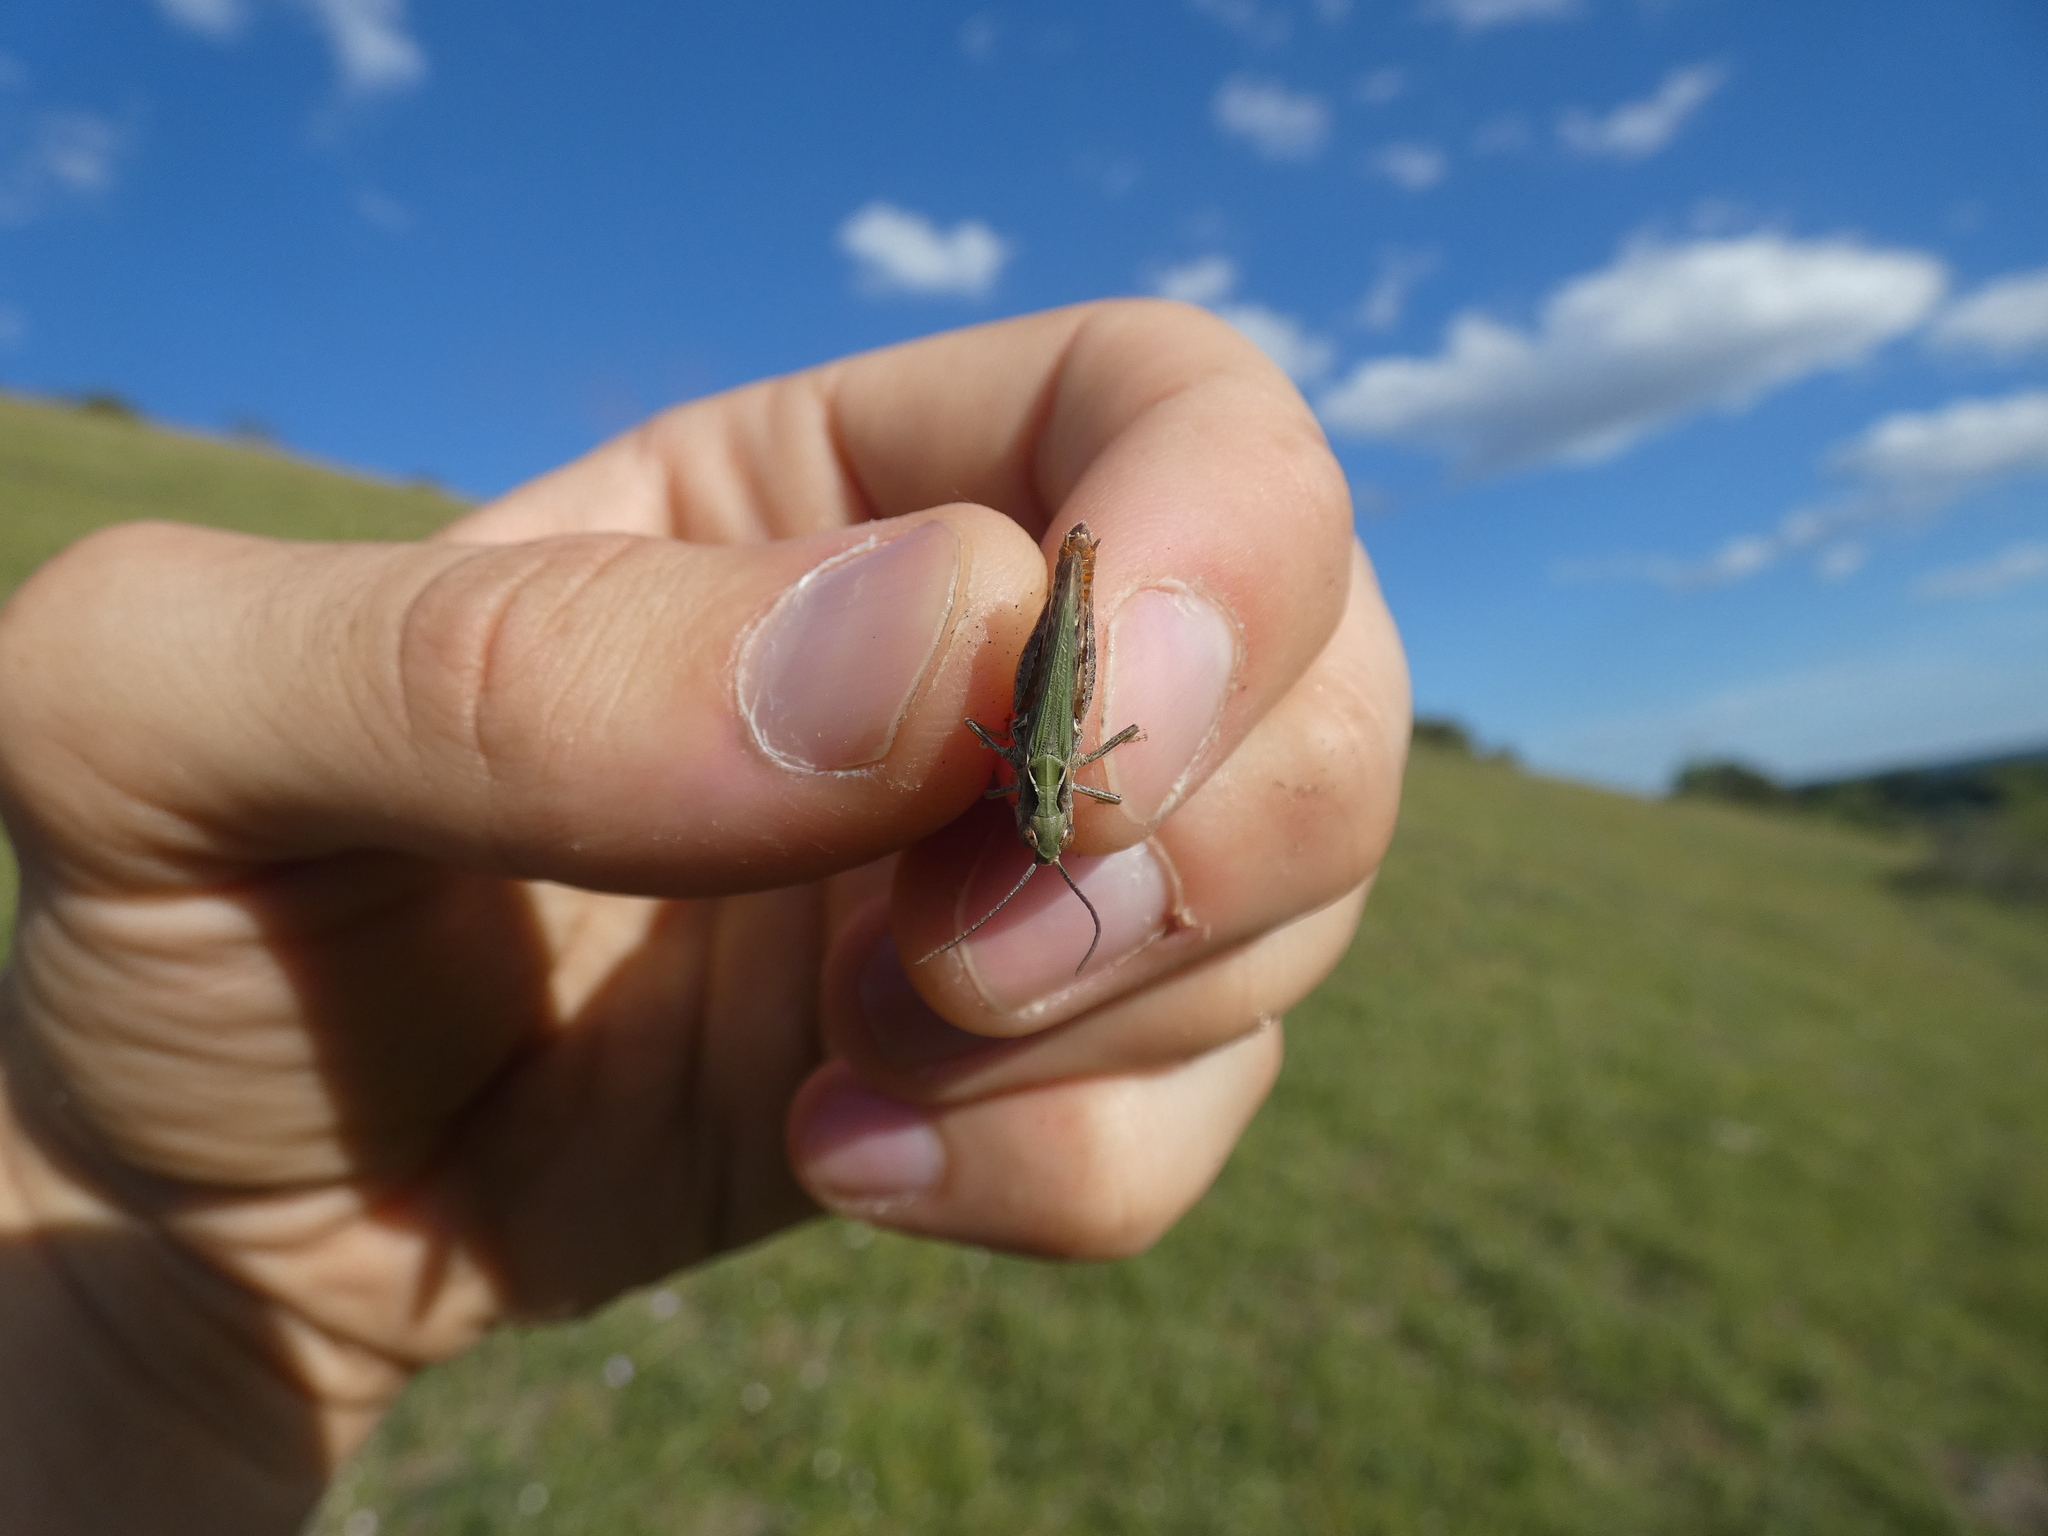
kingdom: Animalia
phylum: Arthropoda
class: Insecta
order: Orthoptera
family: Acrididae
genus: Omocestus
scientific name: Omocestus haemorrhoidalis
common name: Orange-tipped grasshopper
